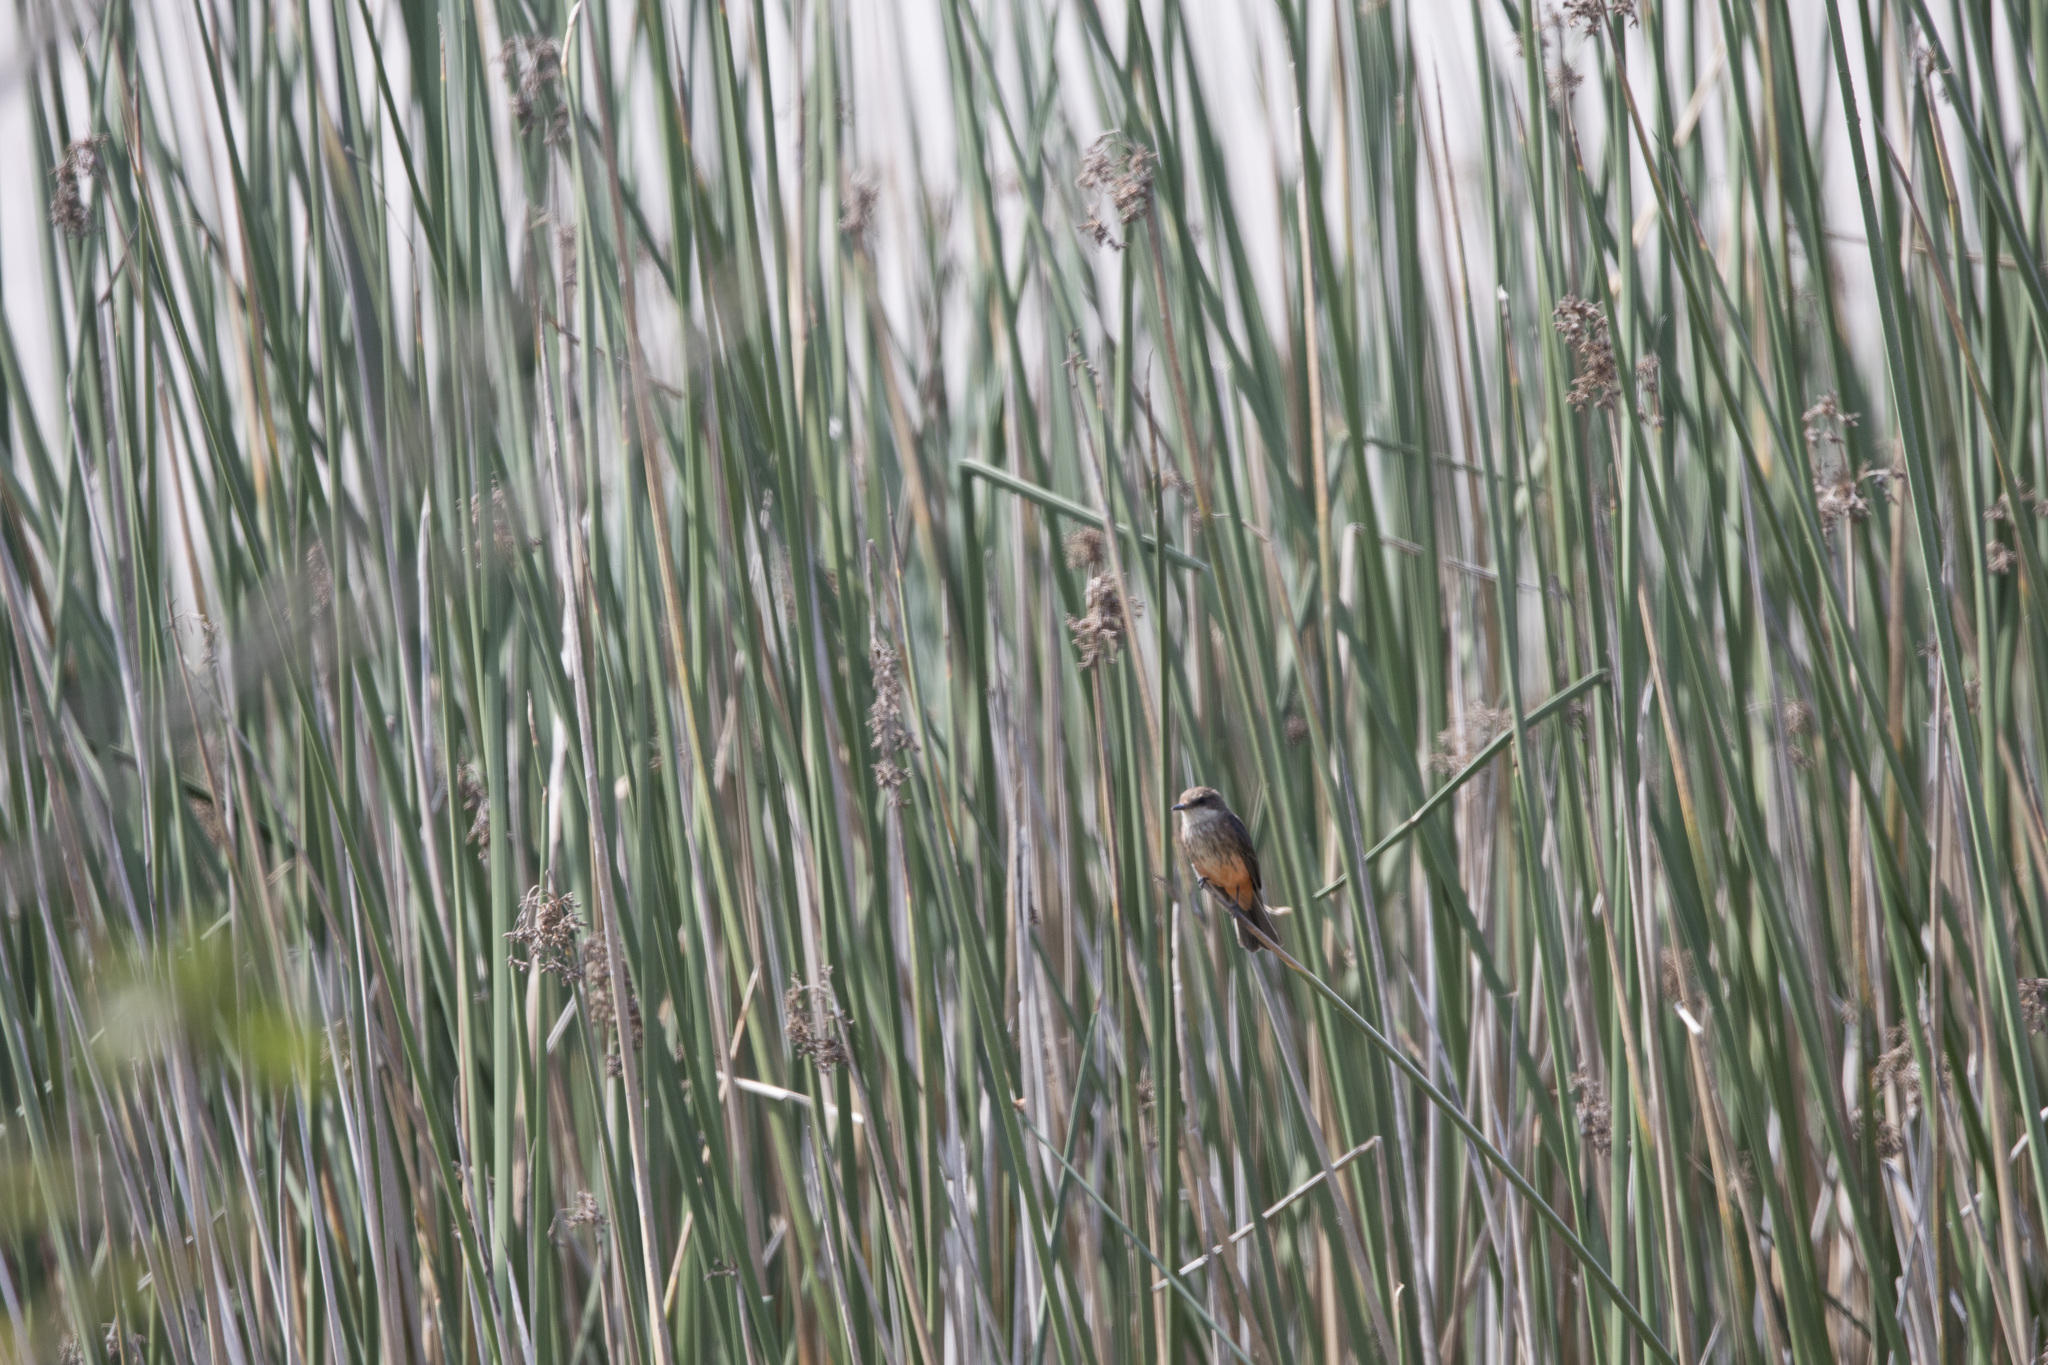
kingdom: Animalia
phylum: Chordata
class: Aves
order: Passeriformes
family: Tyrannidae
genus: Pyrocephalus
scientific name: Pyrocephalus rubinus
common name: Vermilion flycatcher
